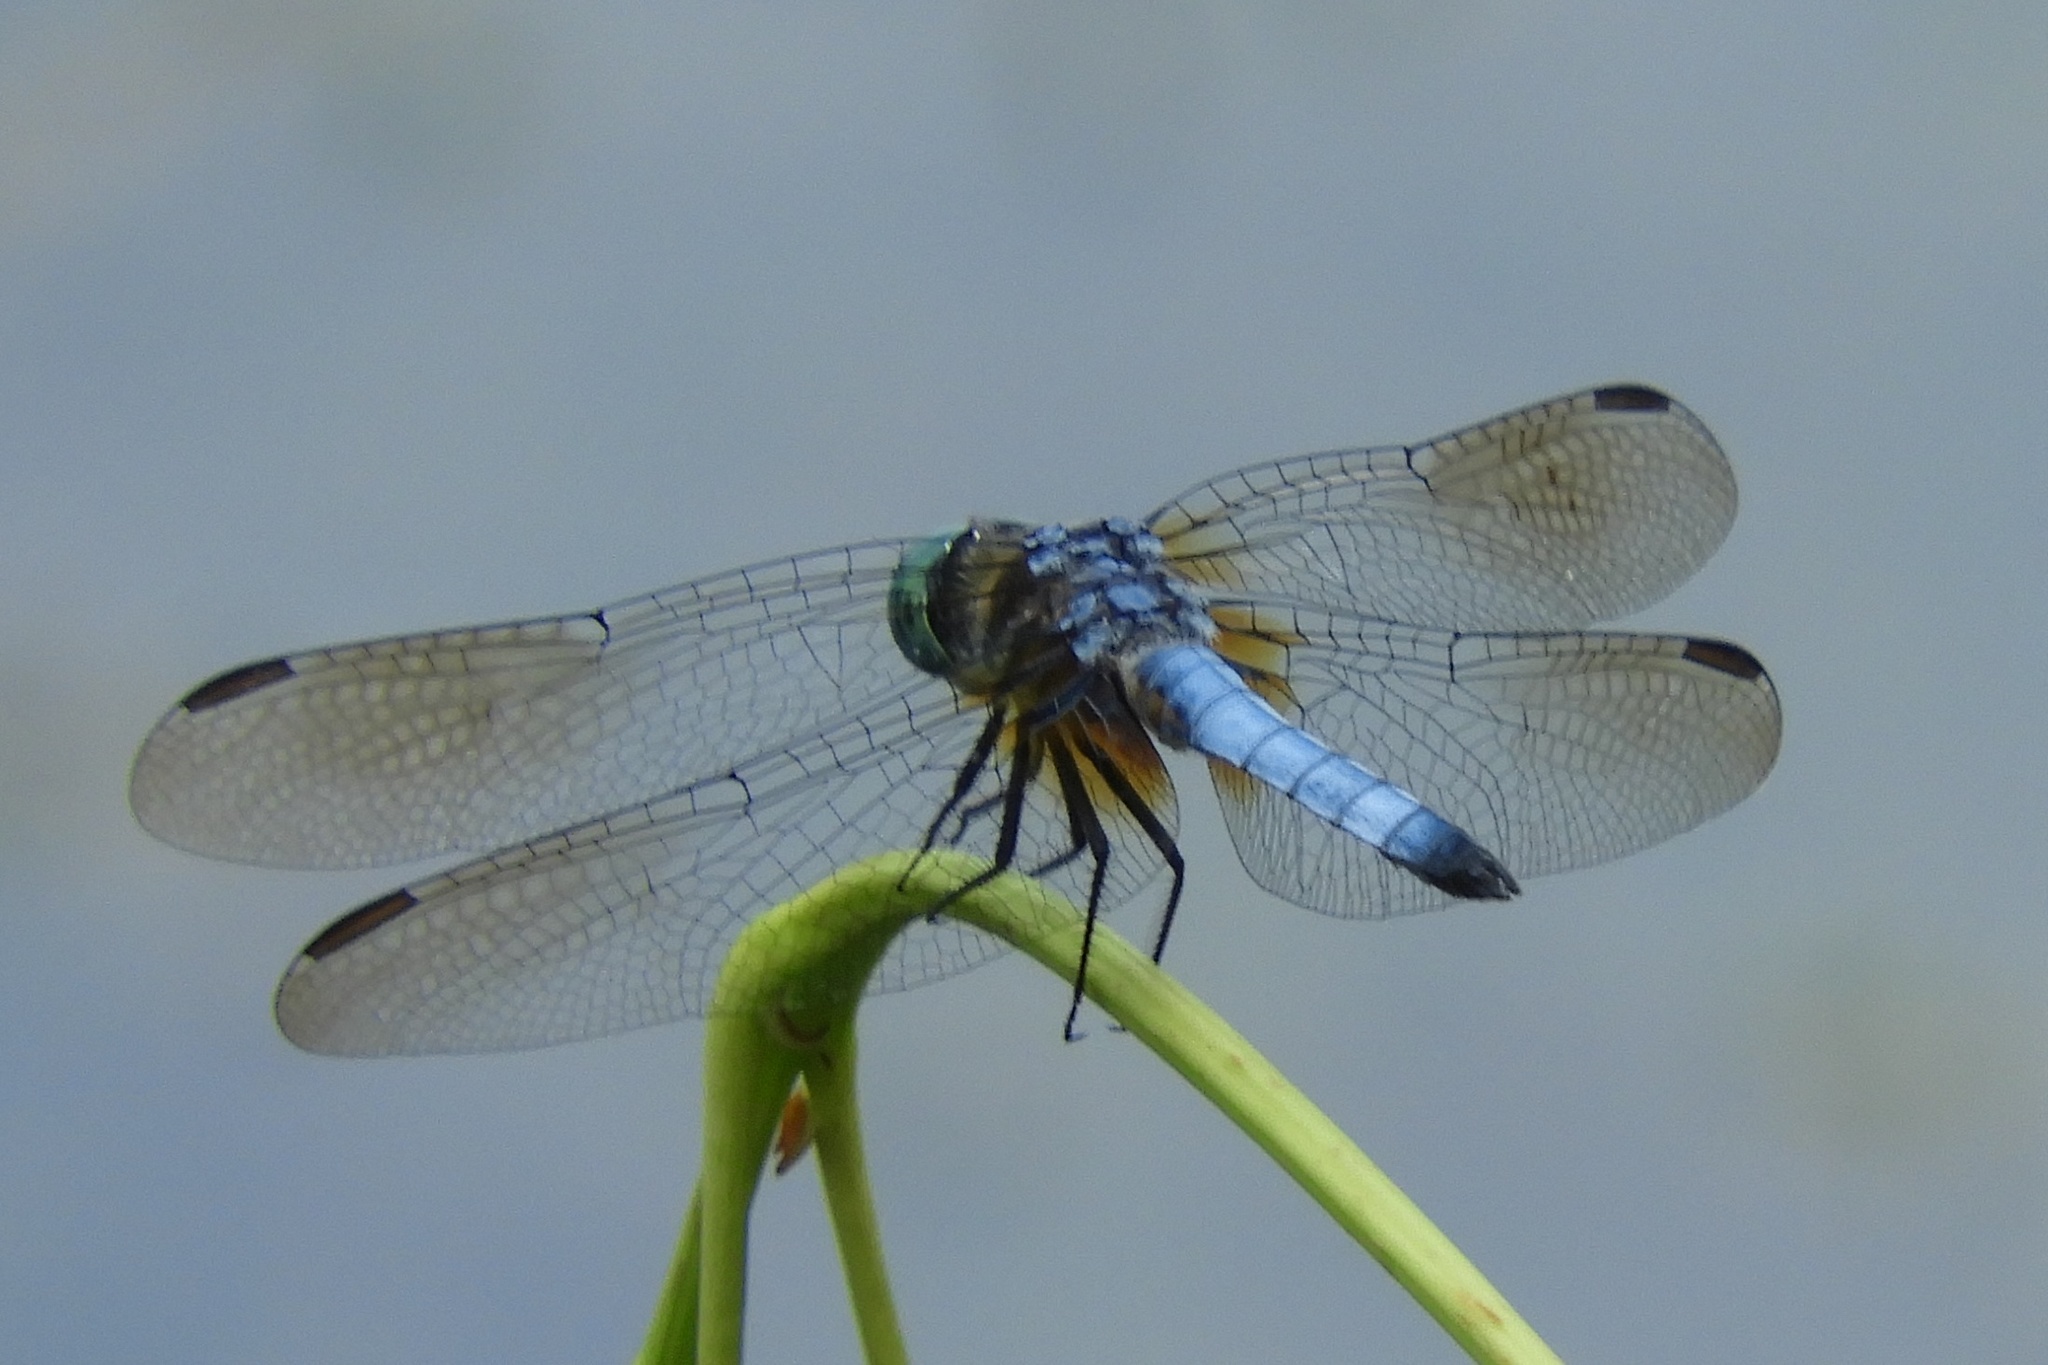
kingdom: Animalia
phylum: Arthropoda
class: Insecta
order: Odonata
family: Libellulidae
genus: Pachydiplax
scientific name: Pachydiplax longipennis
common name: Blue dasher
